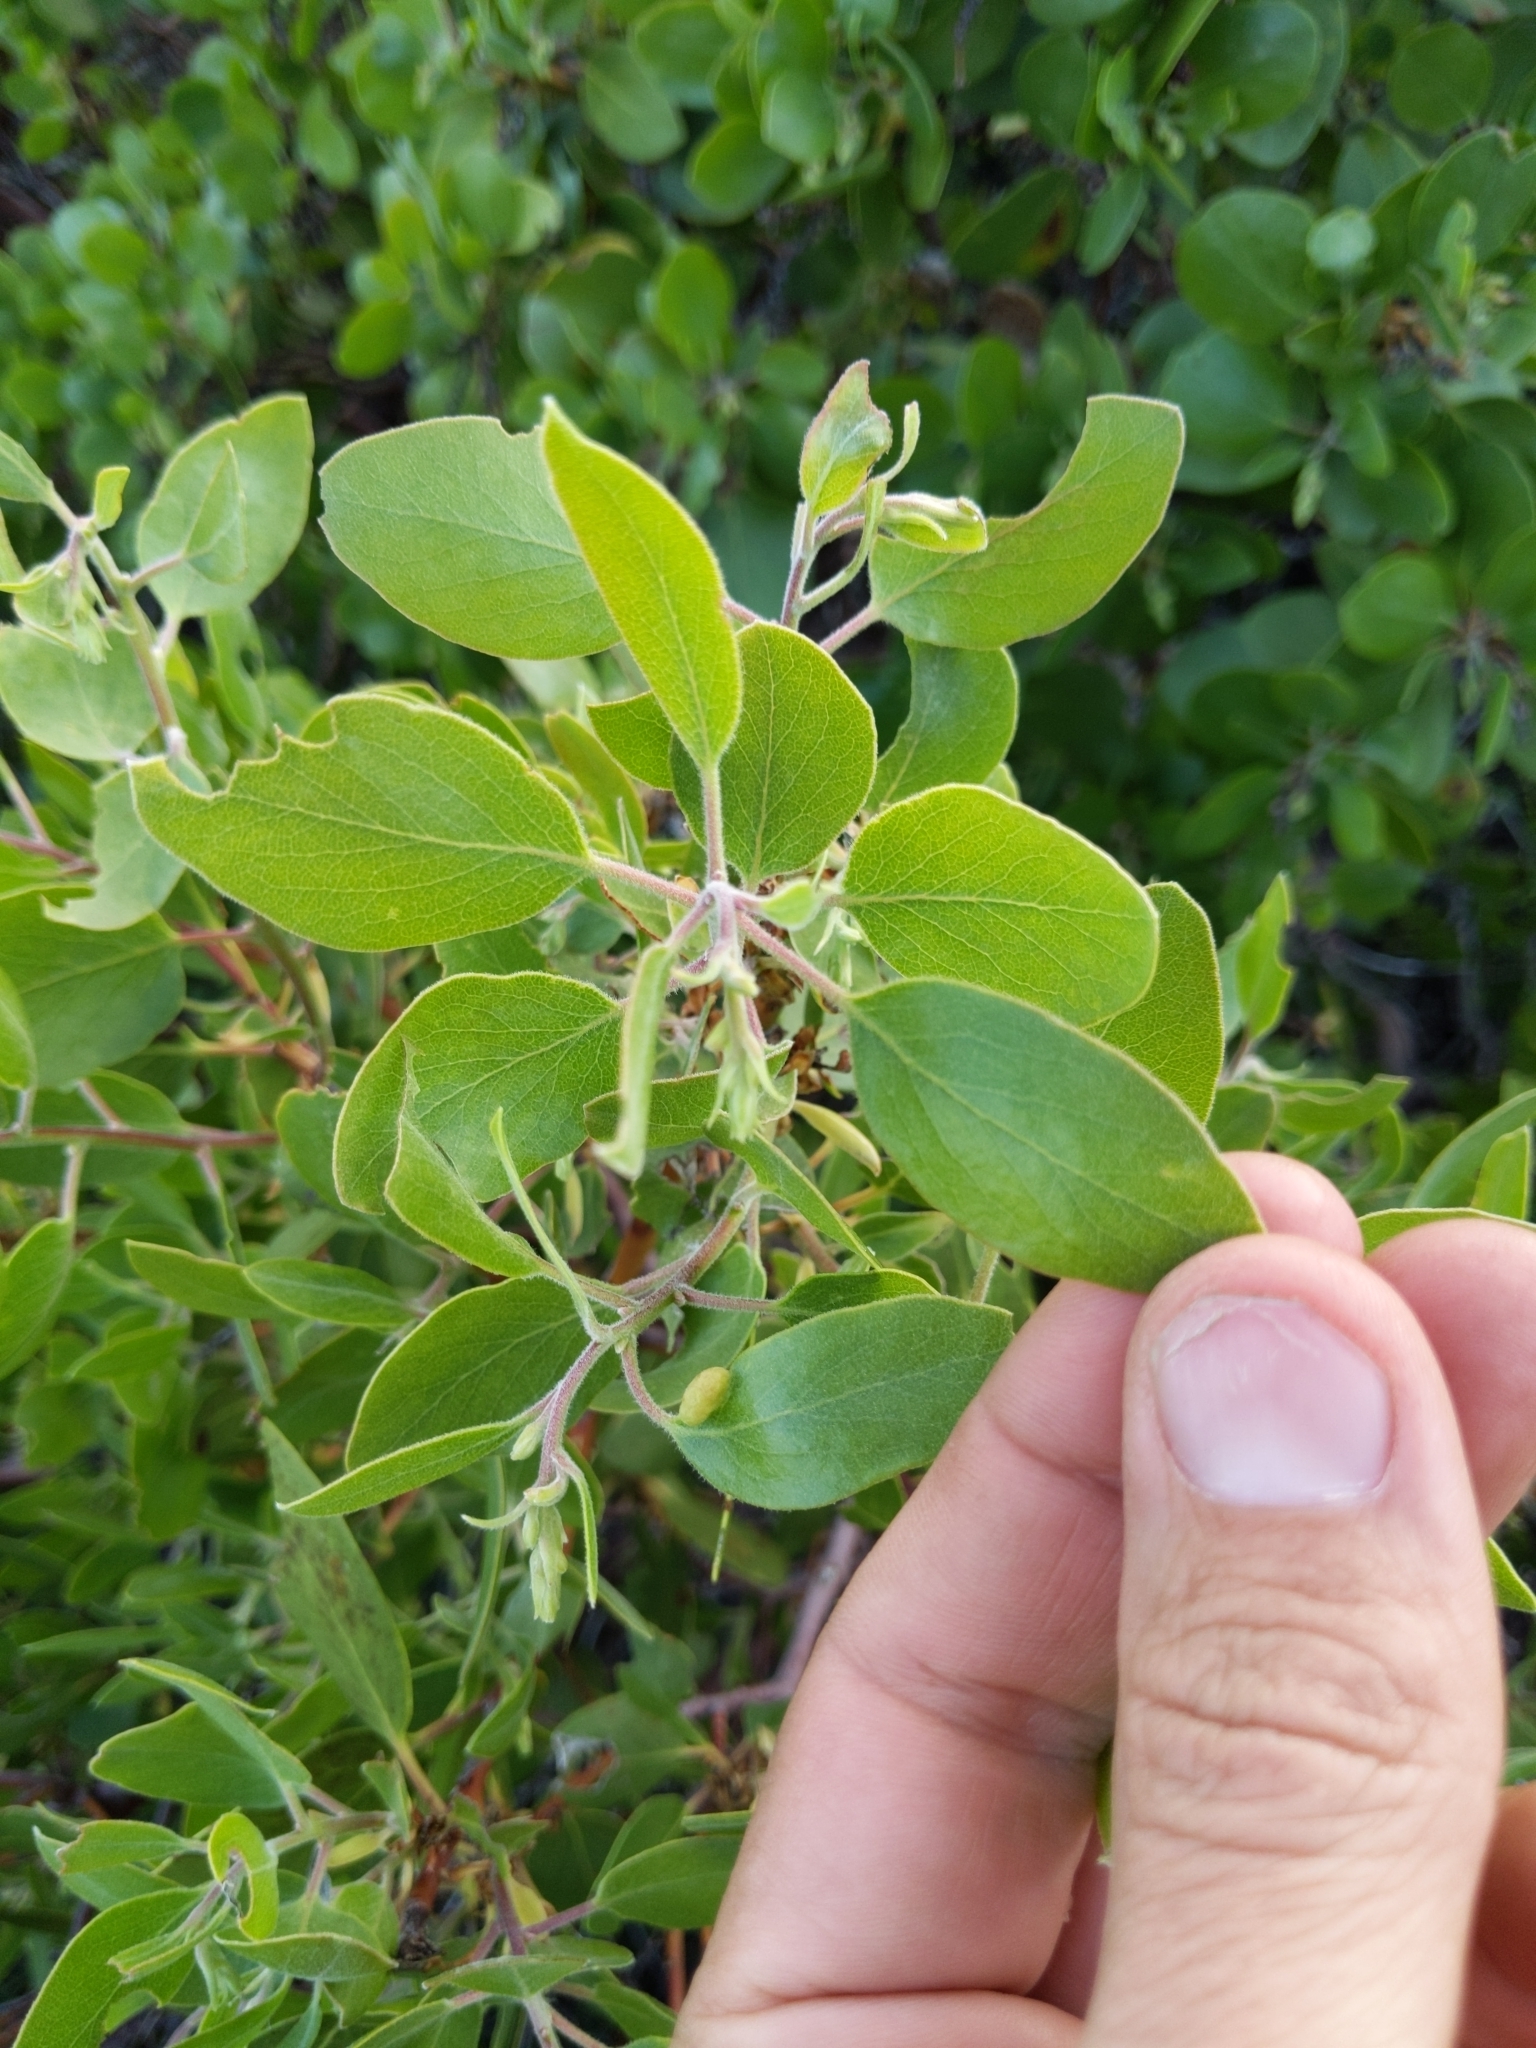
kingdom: Plantae
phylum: Tracheophyta
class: Magnoliopsida
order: Ericales
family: Ericaceae
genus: Arctostaphylos
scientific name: Arctostaphylos patula
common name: Green-leaf manzanita
